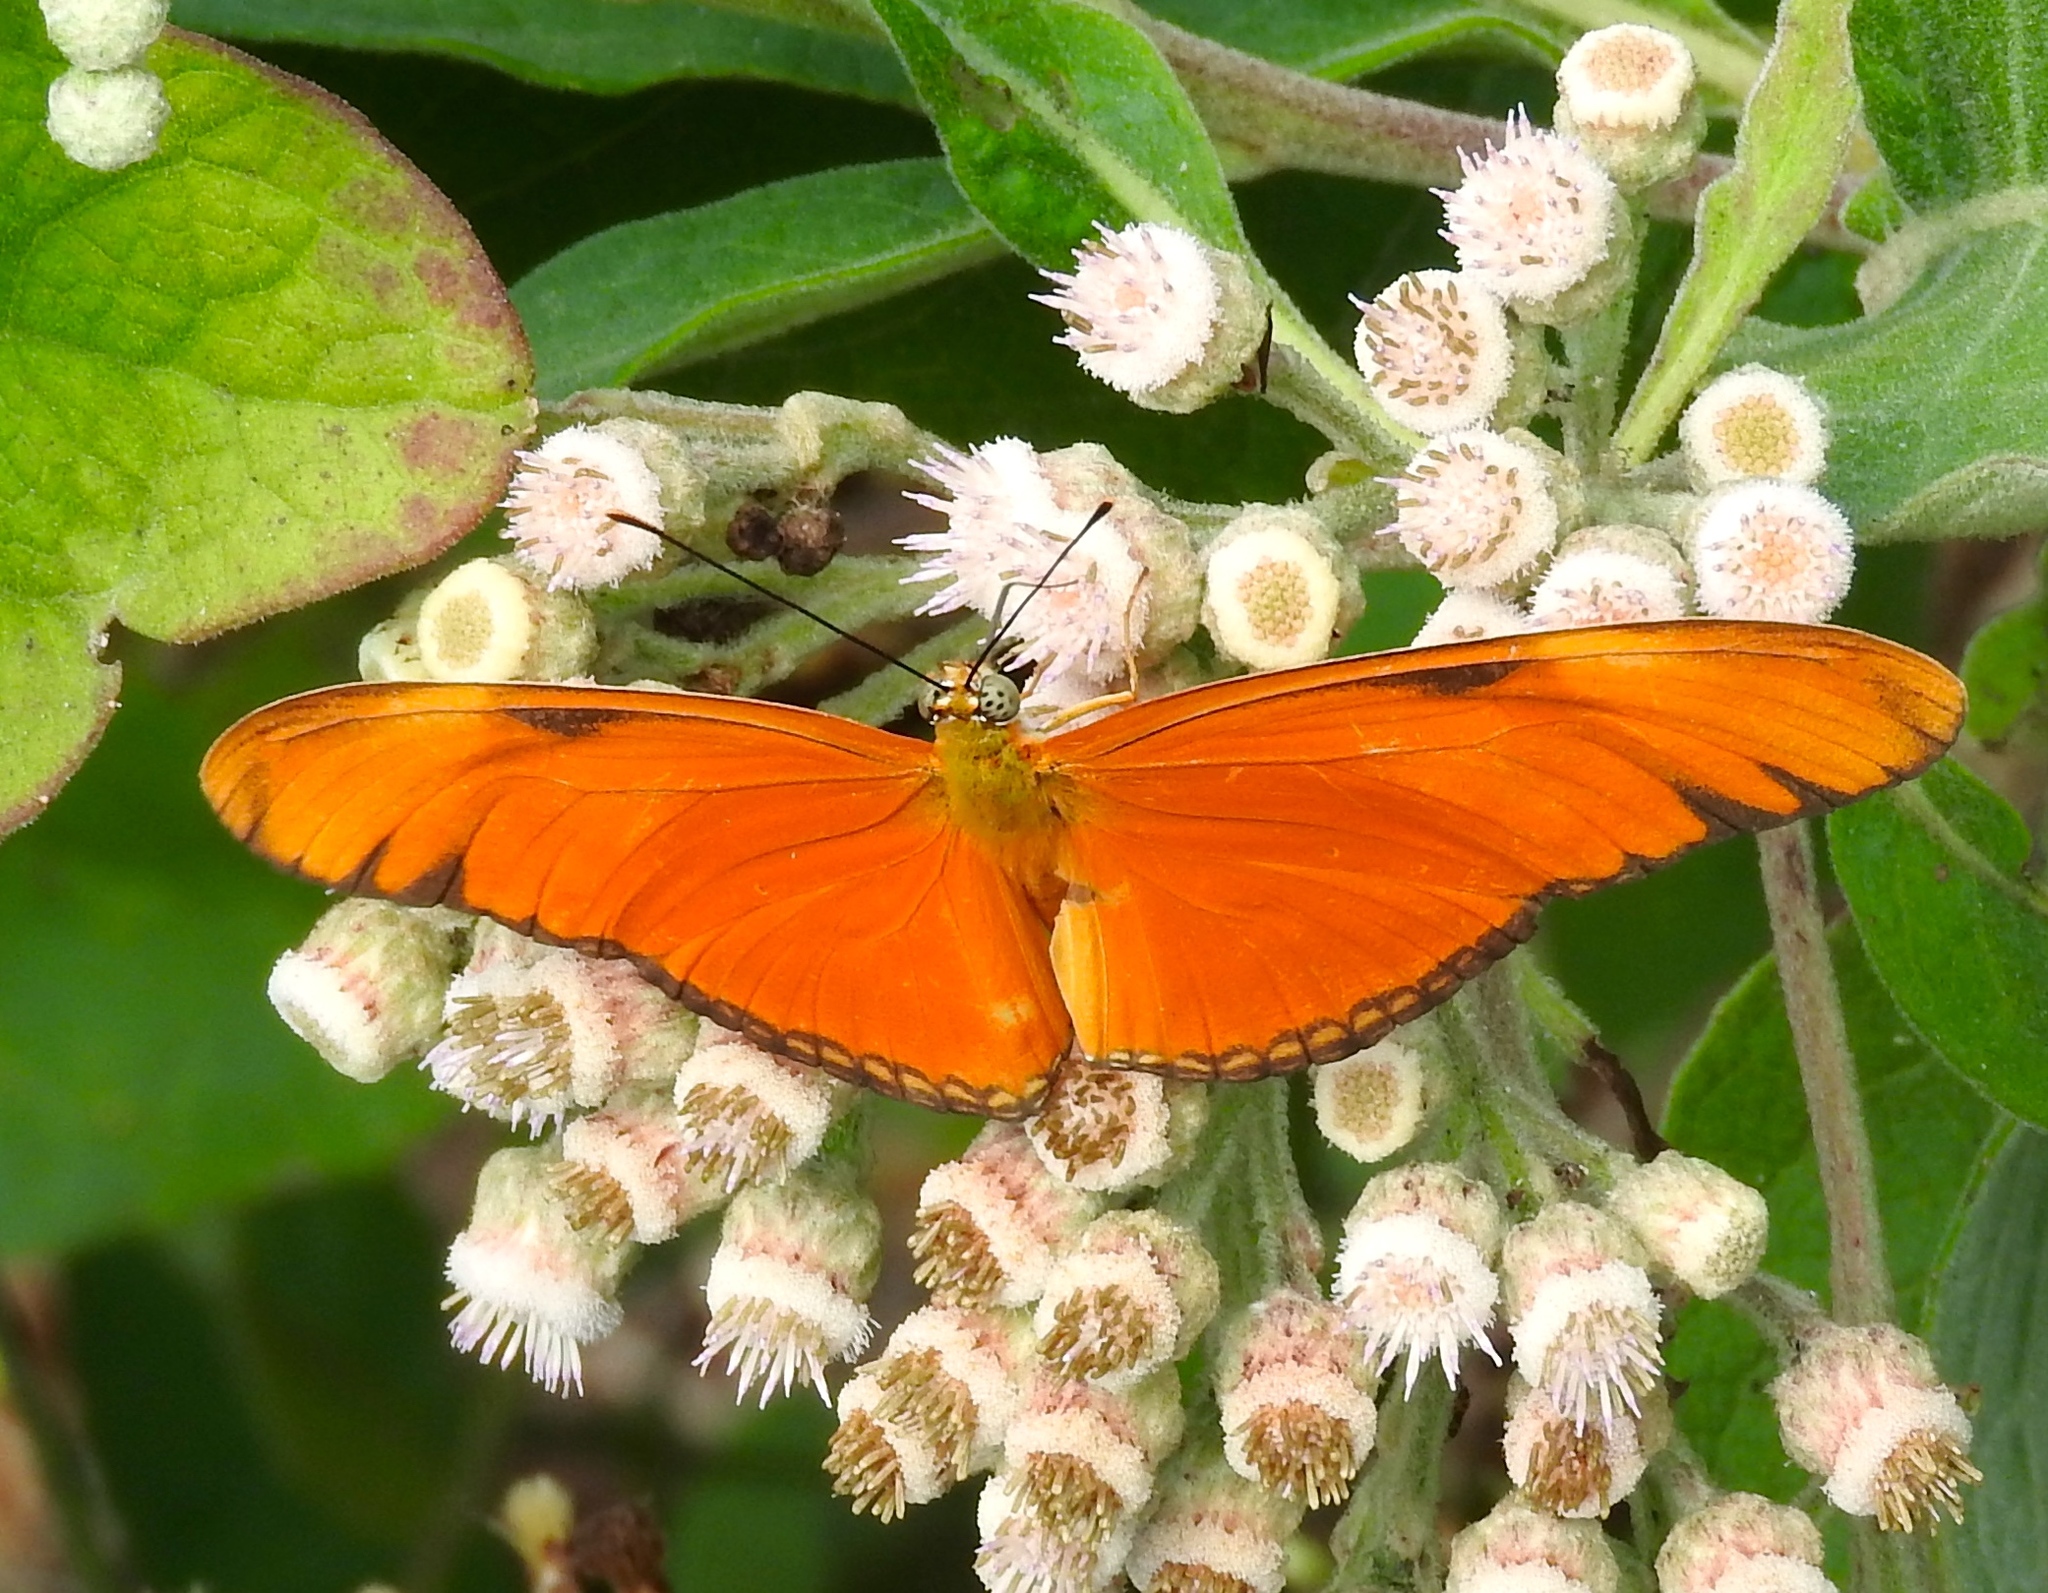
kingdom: Animalia
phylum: Arthropoda
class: Insecta
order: Lepidoptera
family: Nymphalidae
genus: Dryas
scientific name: Dryas iulia
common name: Flambeau
